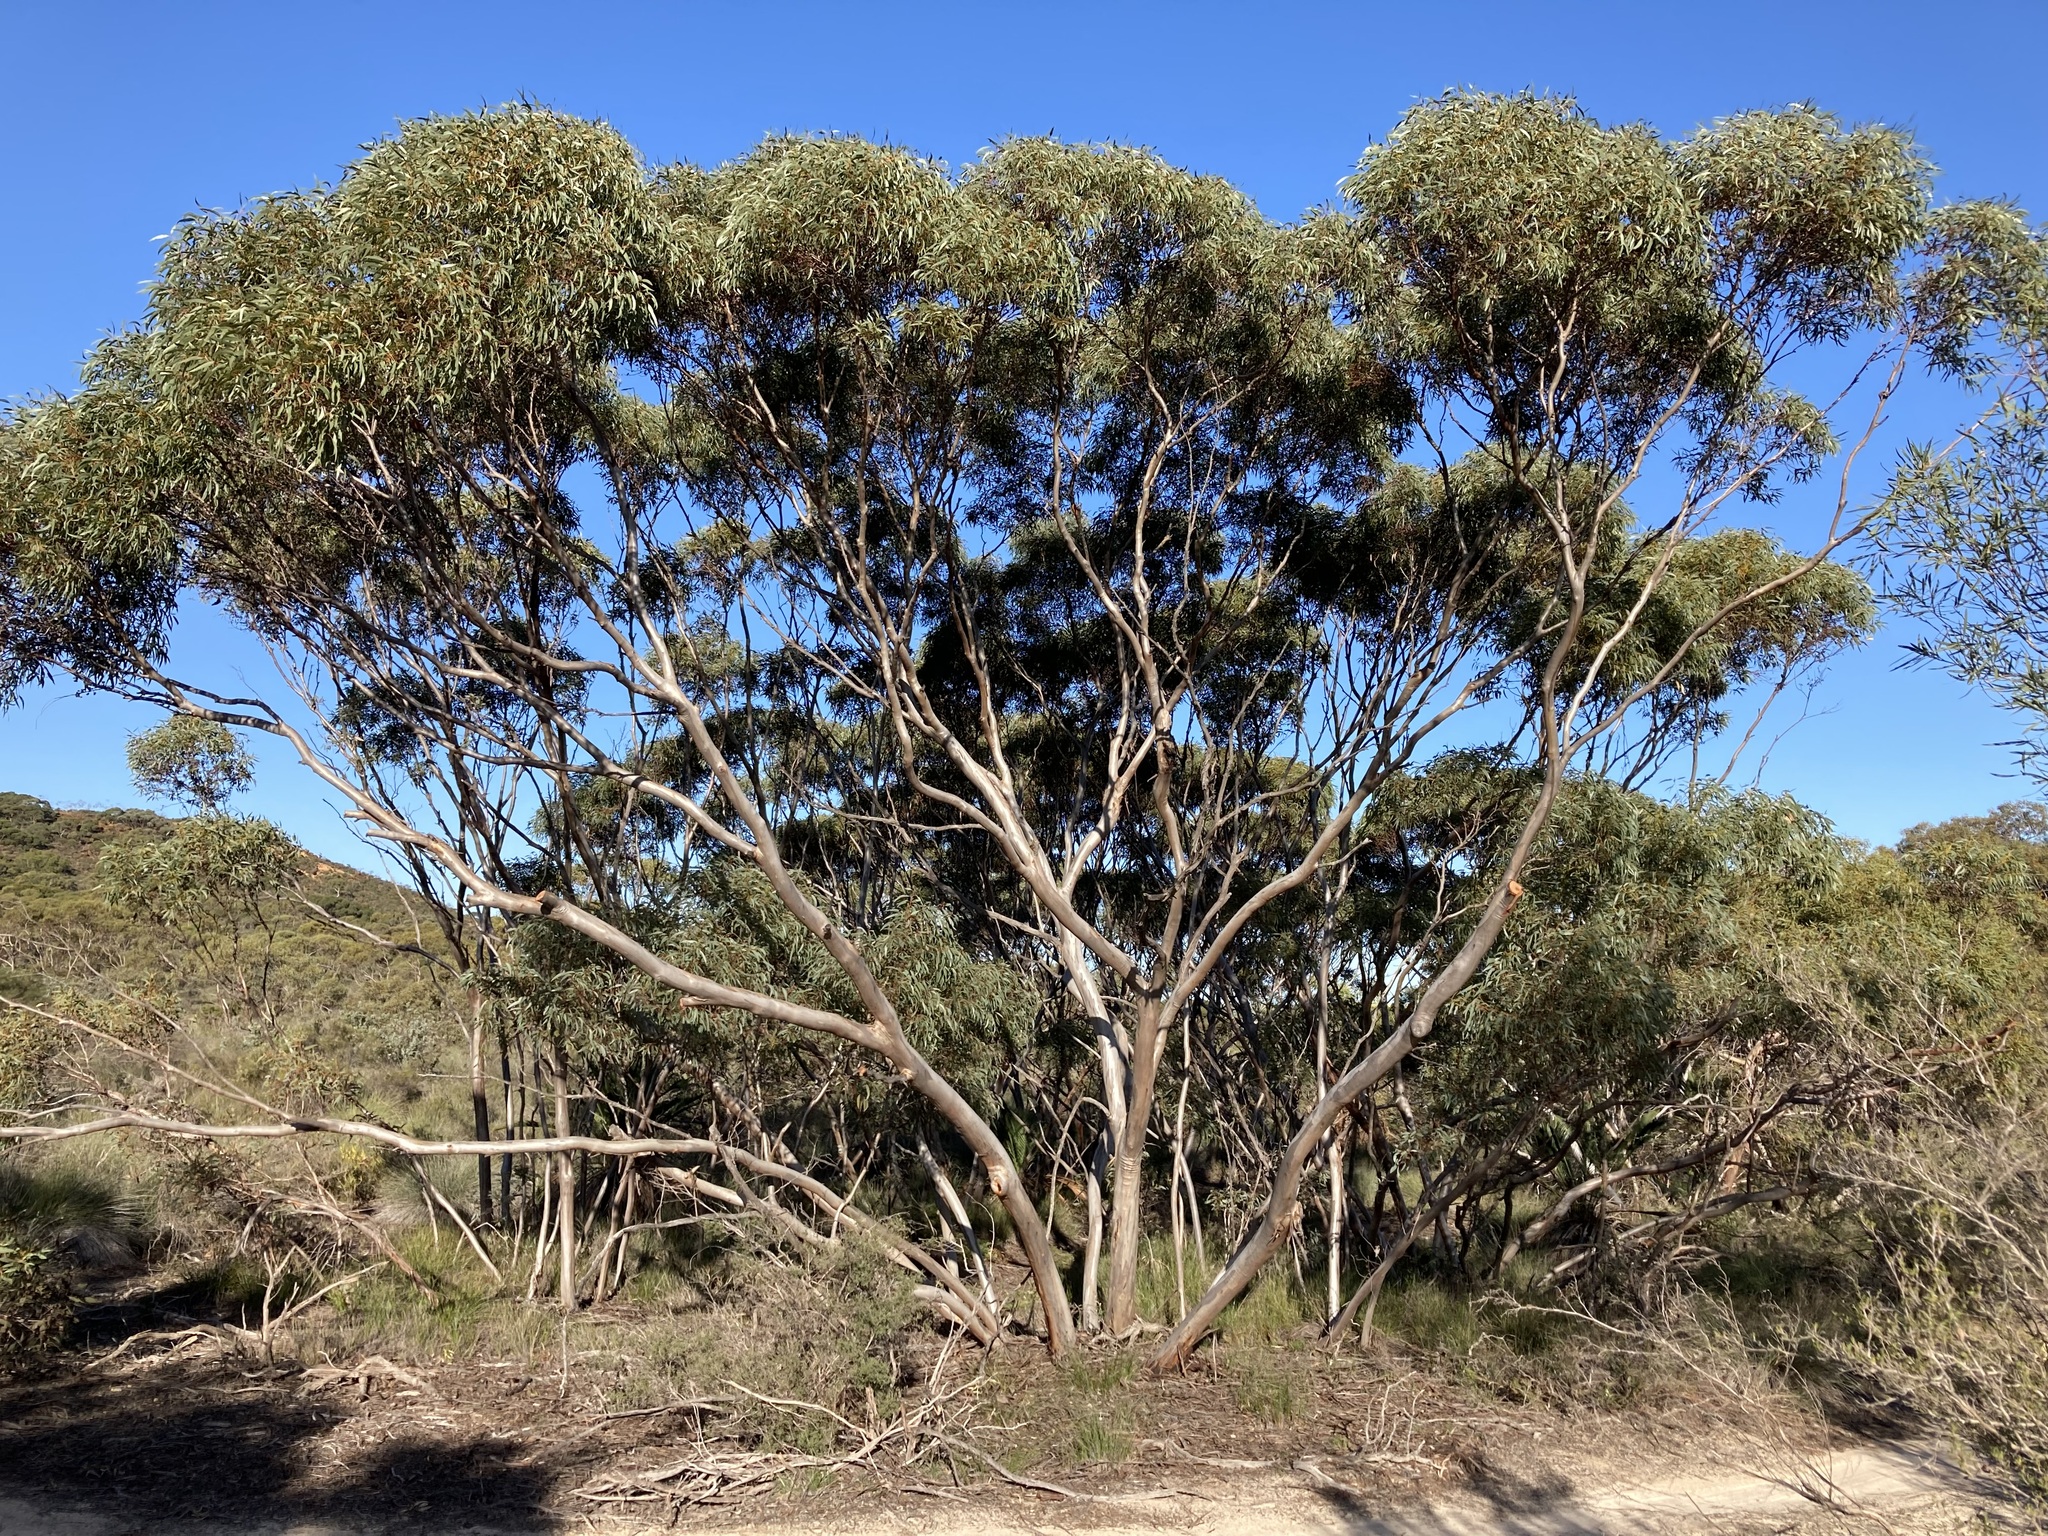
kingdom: Plantae
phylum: Tracheophyta
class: Magnoliopsida
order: Myrtales
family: Myrtaceae
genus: Eucalyptus
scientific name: Eucalyptus opimiflora
